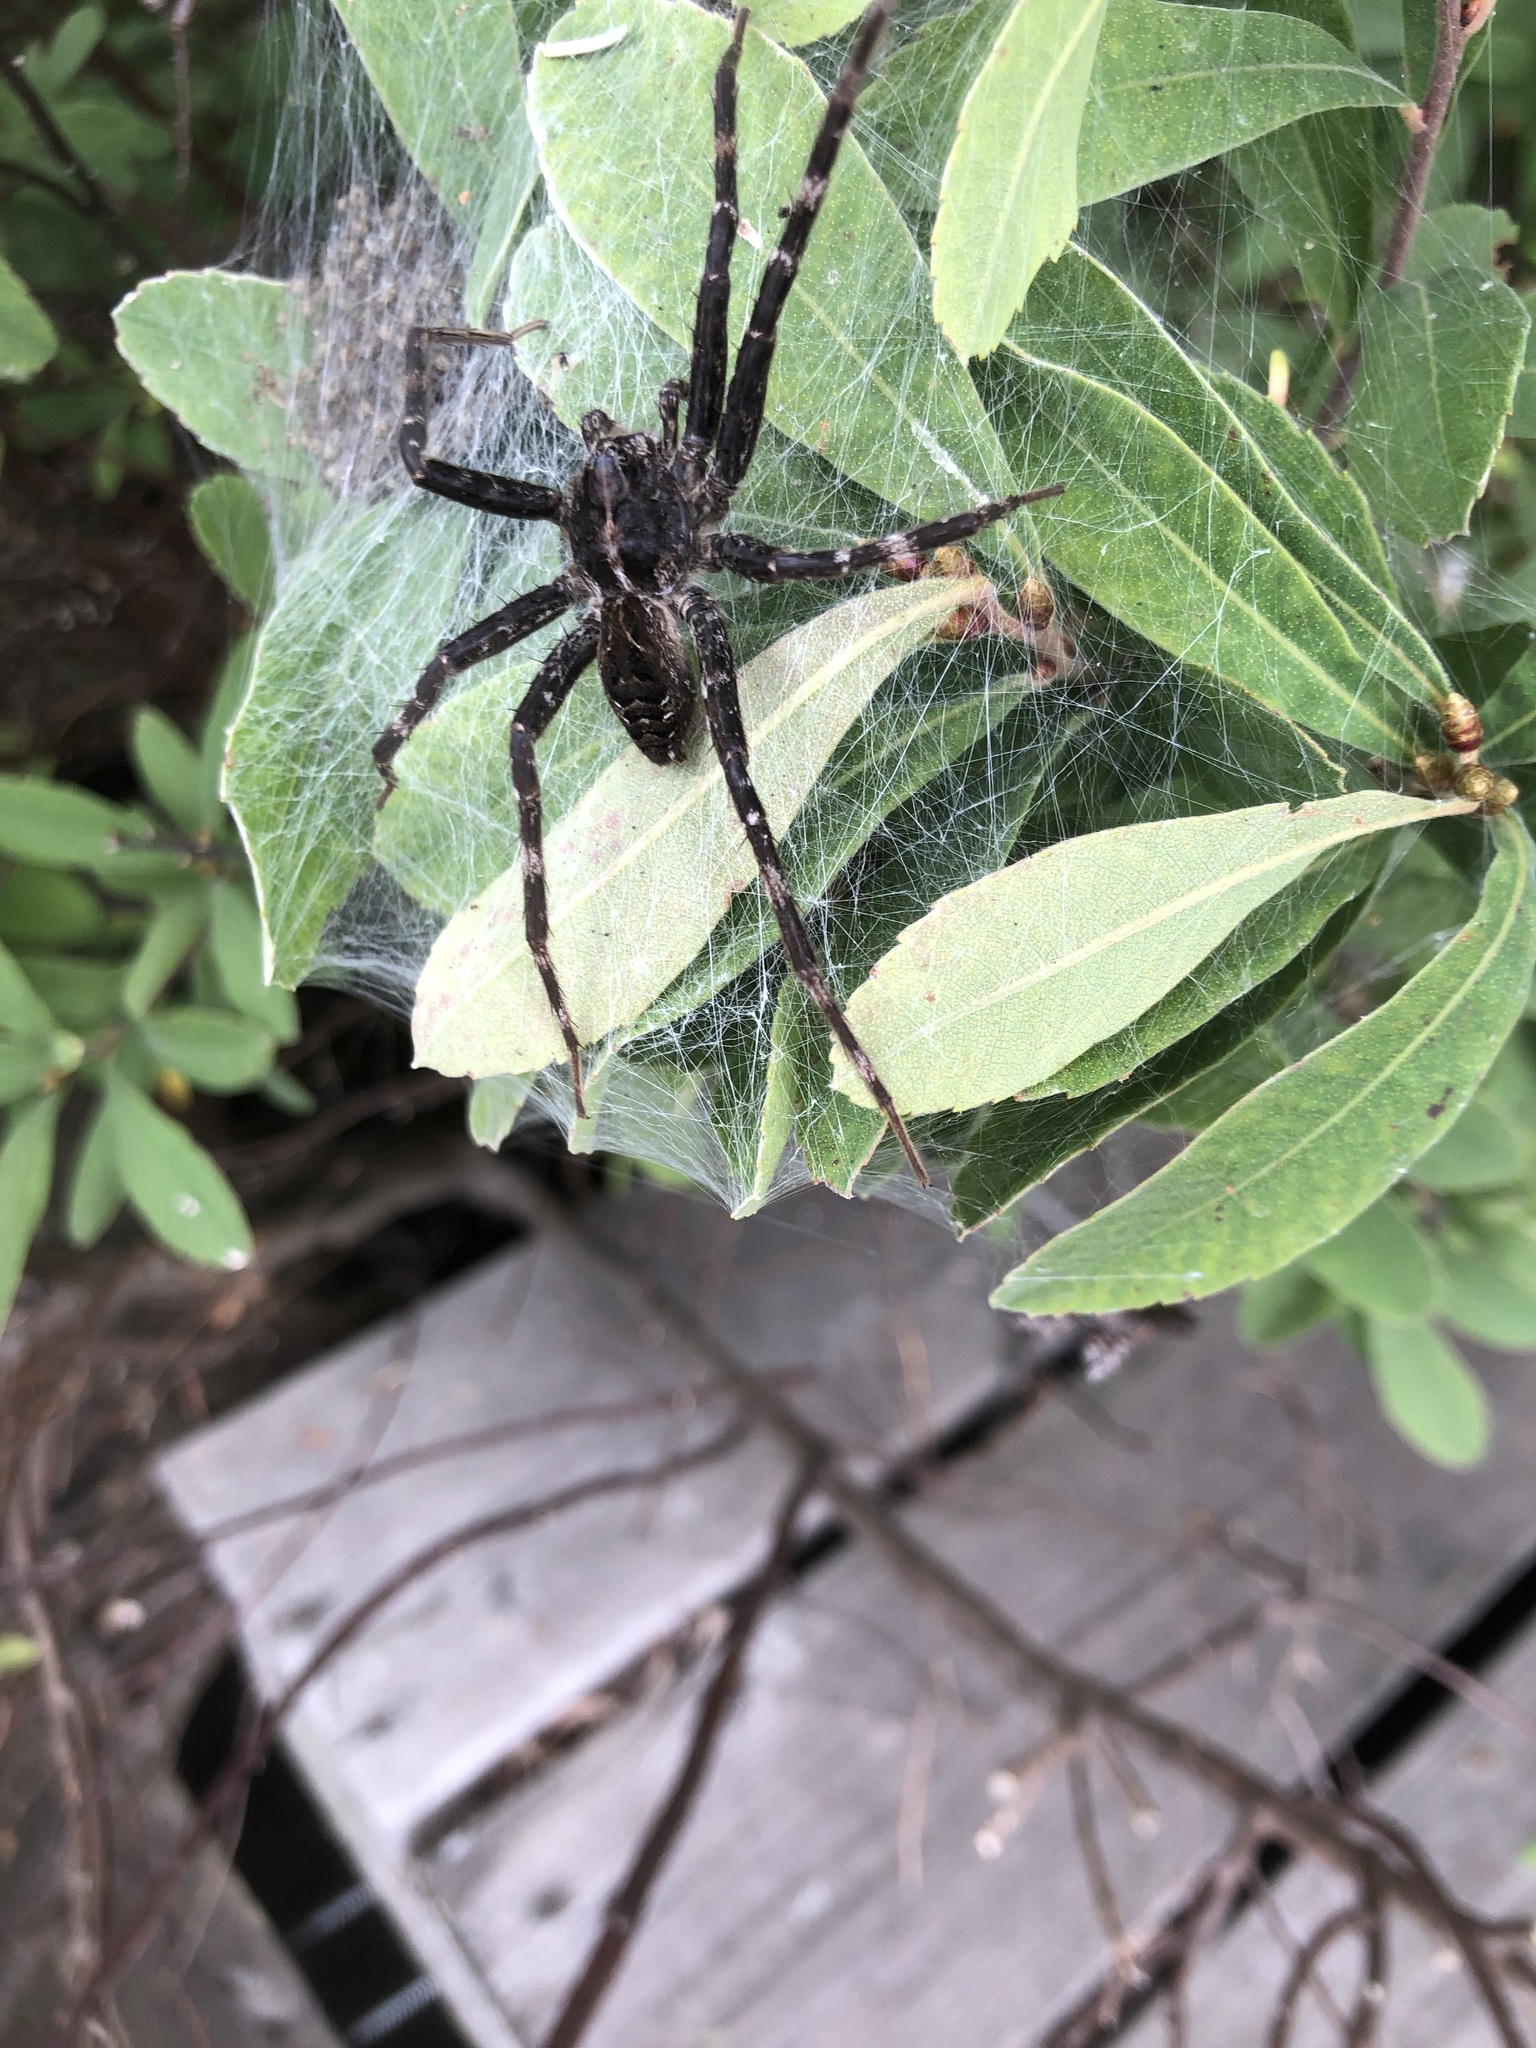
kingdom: Animalia
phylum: Arthropoda
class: Arachnida
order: Araneae
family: Pisauridae
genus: Dolomedes
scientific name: Dolomedes scriptus
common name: Striped fishing spider
